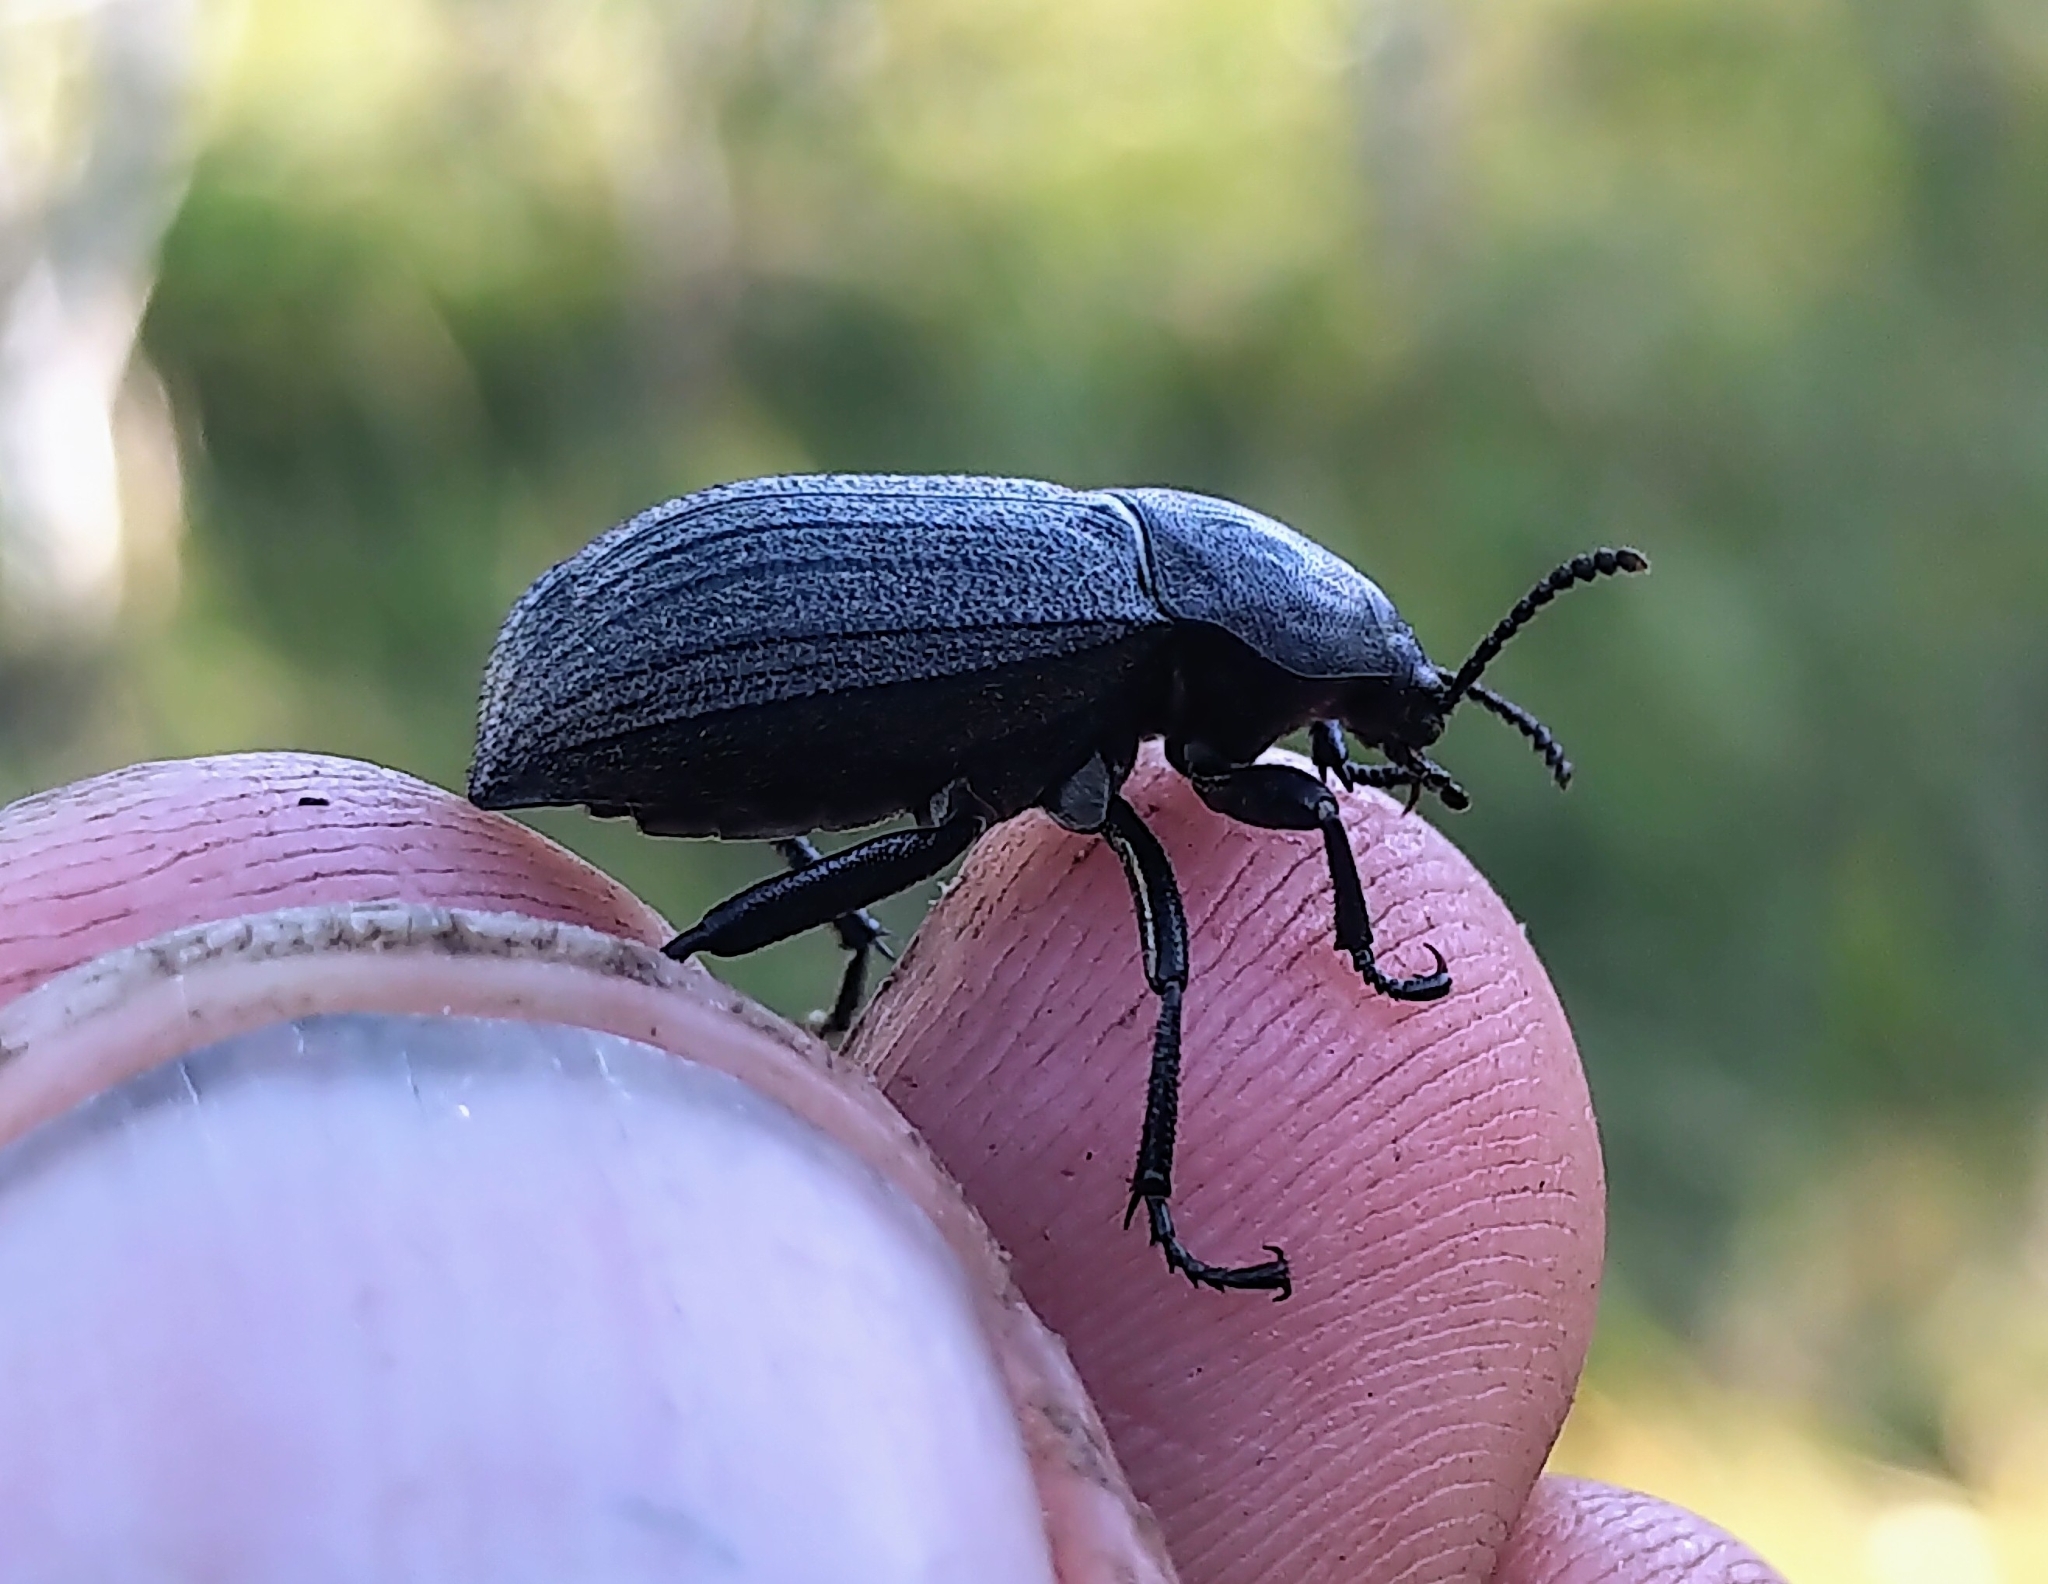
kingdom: Animalia
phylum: Arthropoda
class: Insecta
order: Coleoptera
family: Tenebrionidae
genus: Eleodes
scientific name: Eleodes tricostata
